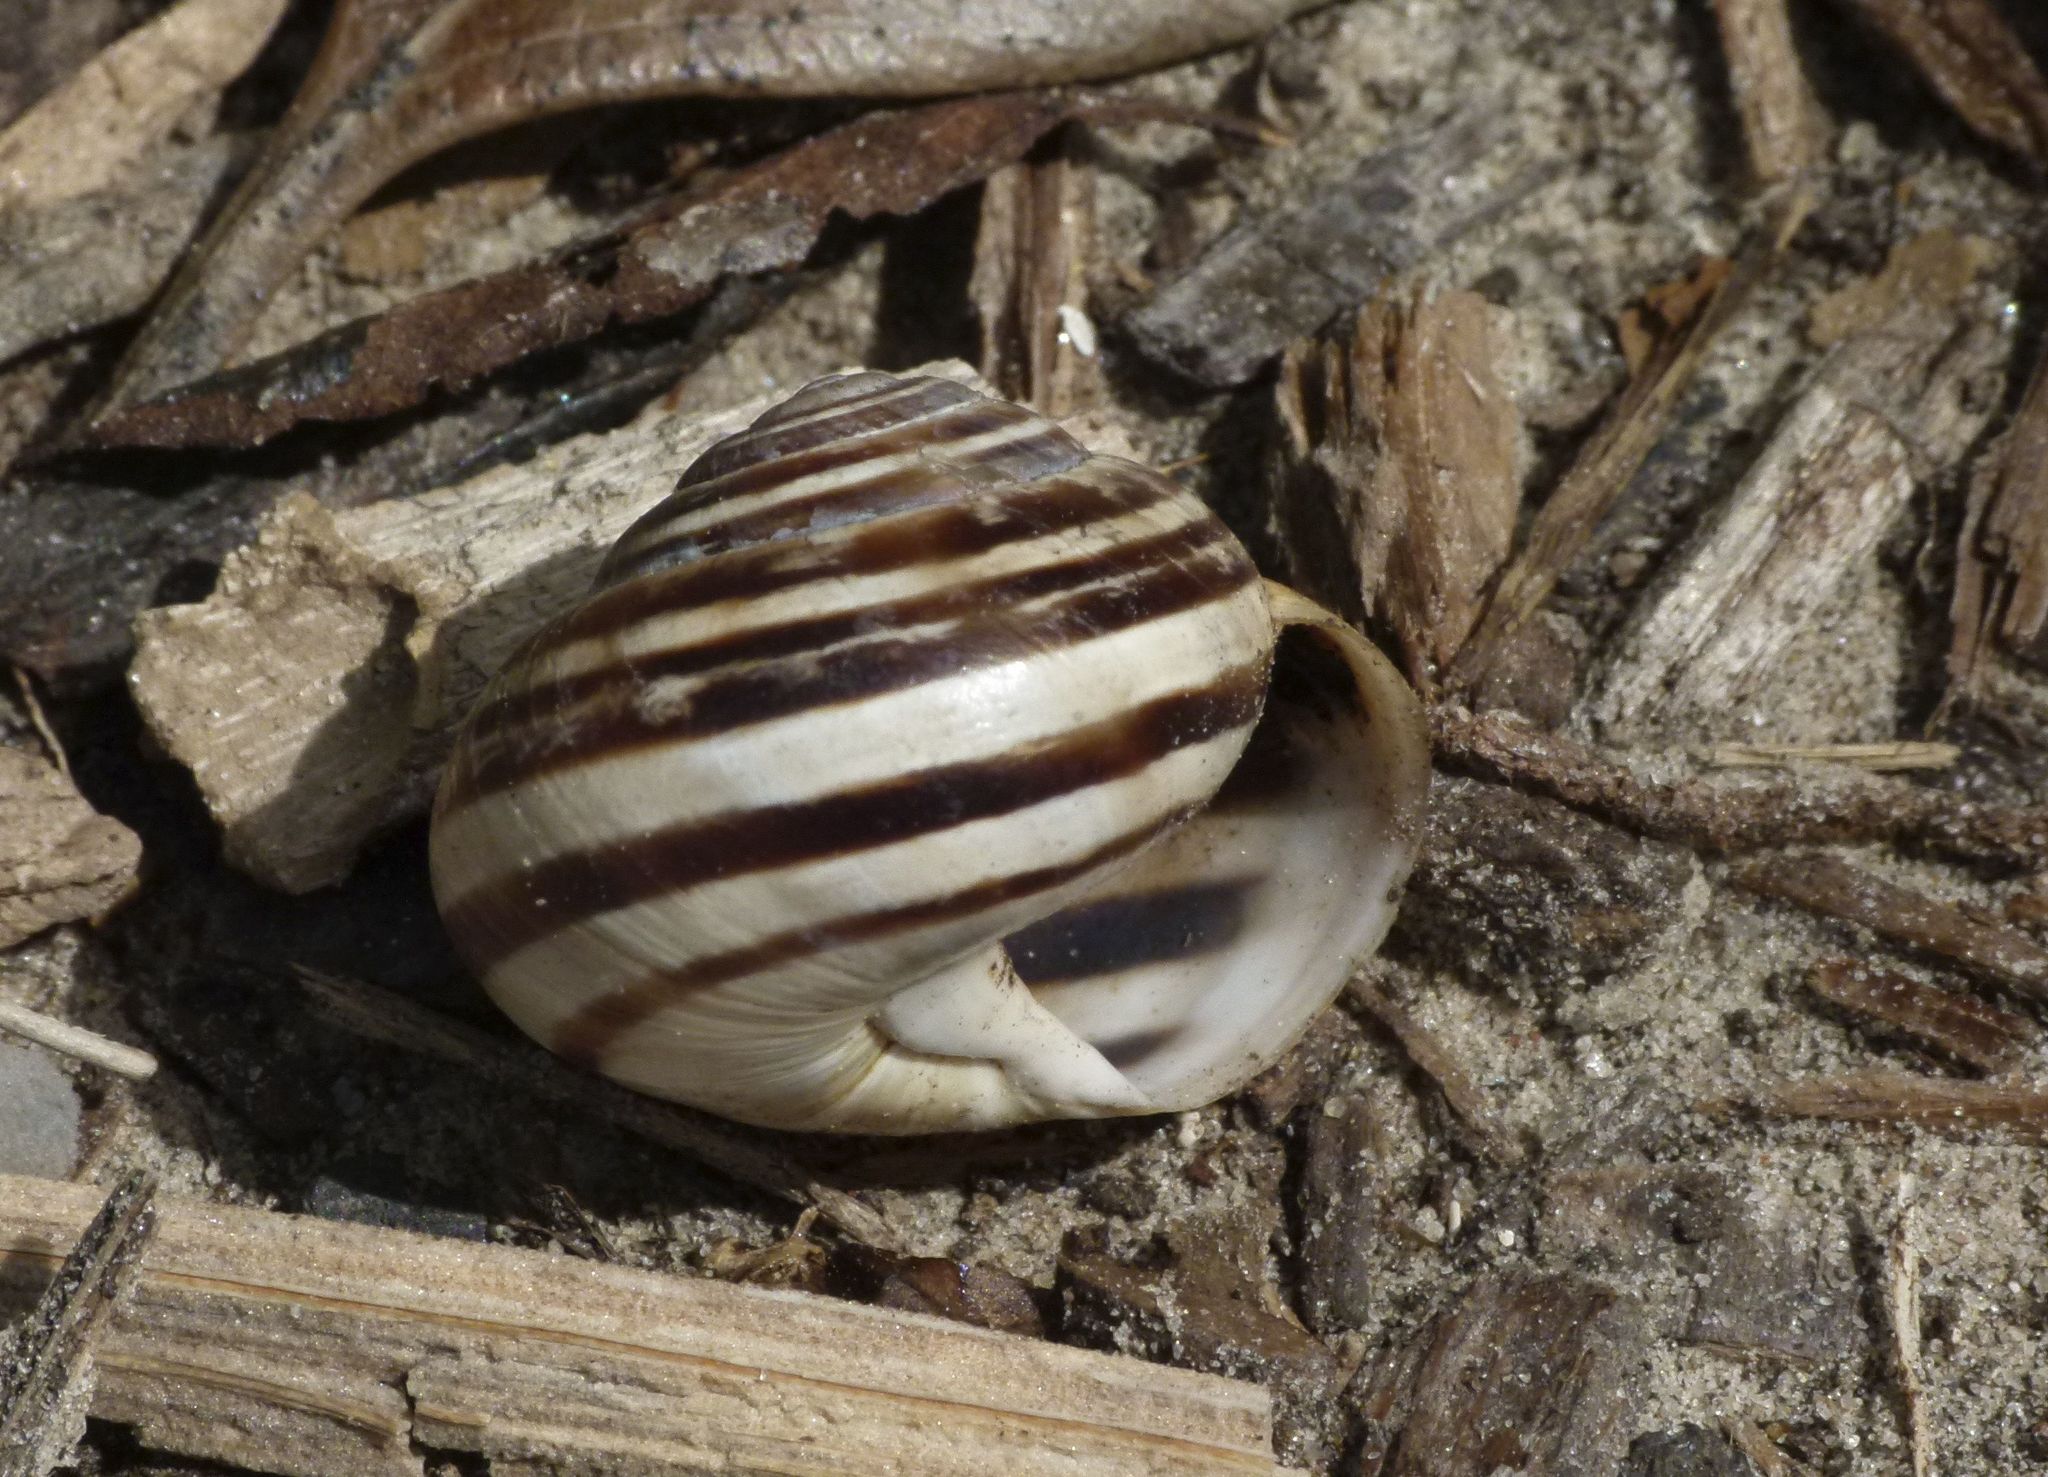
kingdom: Animalia
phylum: Mollusca
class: Gastropoda
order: Stylommatophora
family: Helicidae
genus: Eobania
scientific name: Eobania vermiculata
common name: Chocolateband snail
